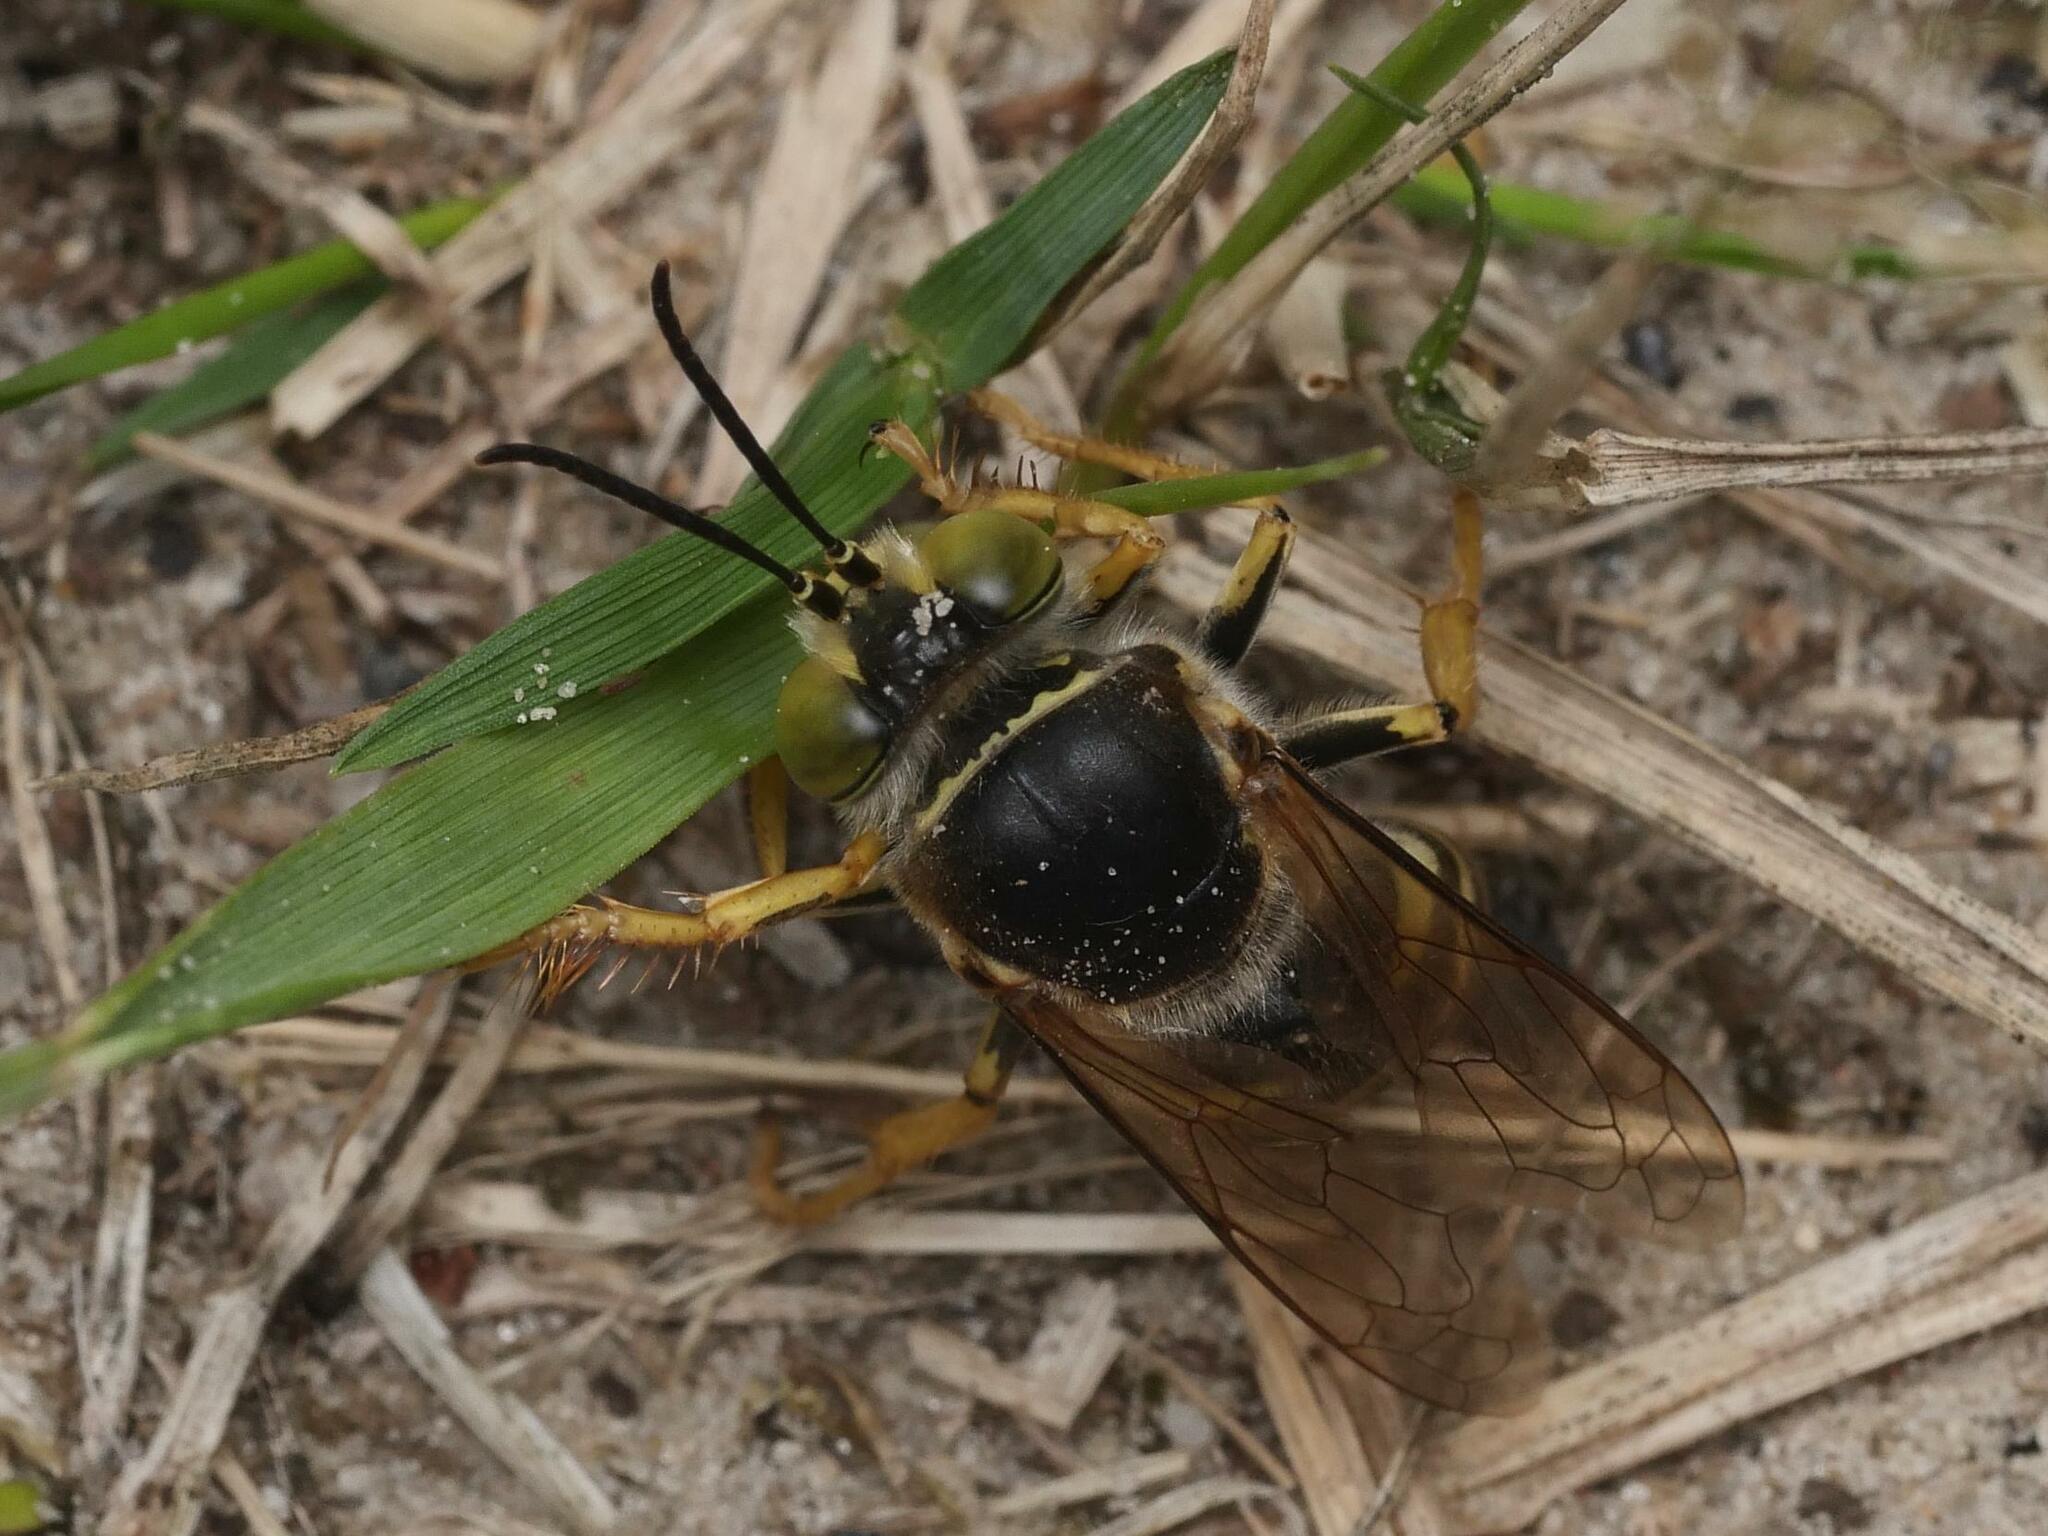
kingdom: Animalia
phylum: Arthropoda
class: Insecta
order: Hymenoptera
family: Crabronidae
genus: Bembix
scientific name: Bembix rostrata
